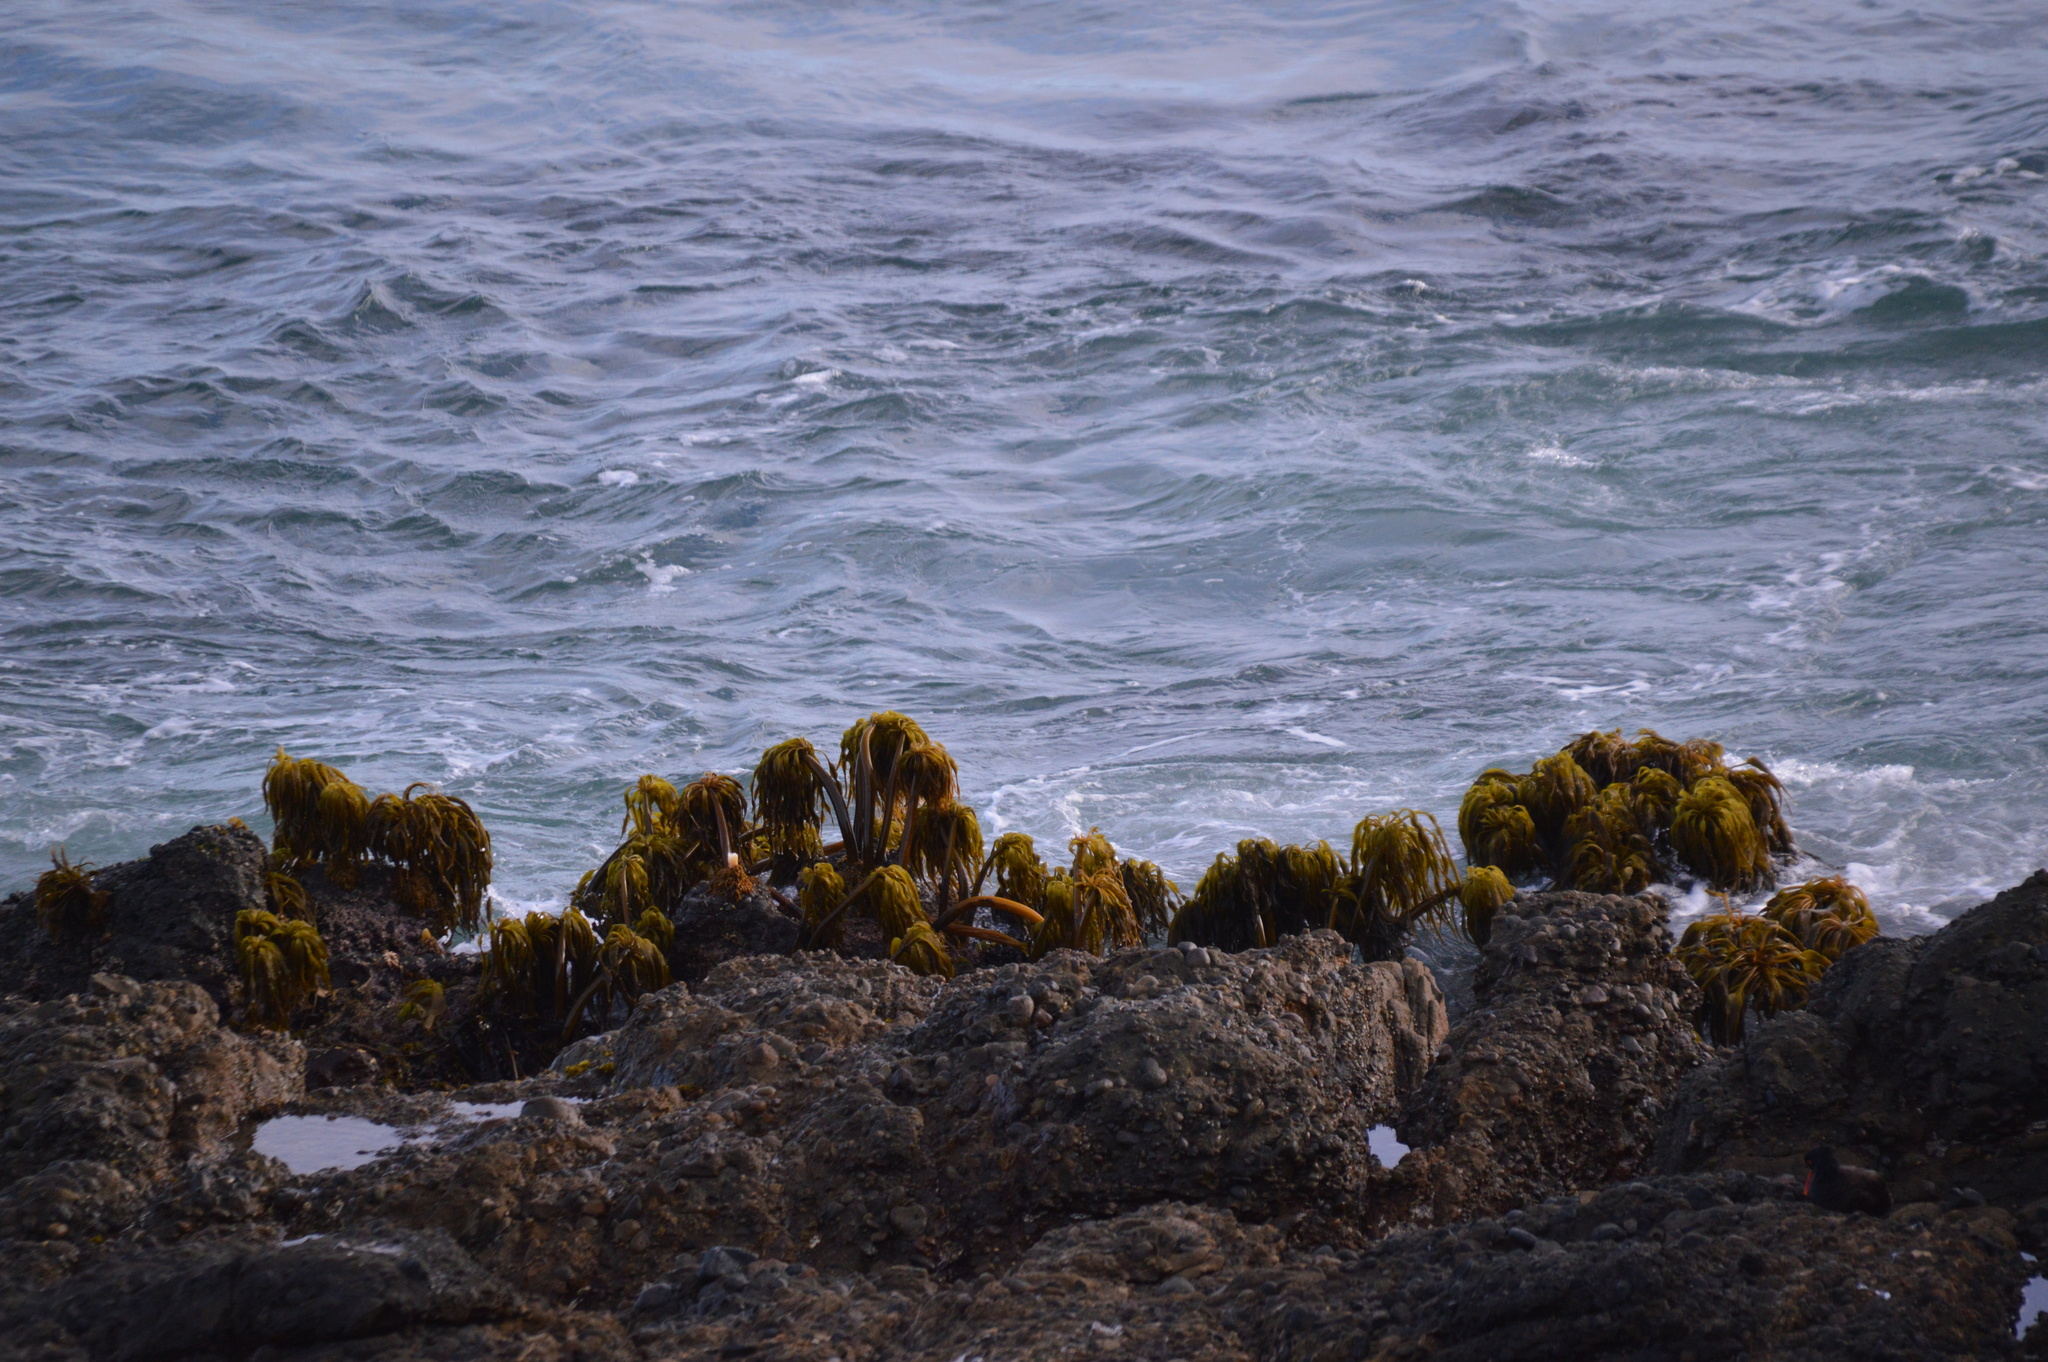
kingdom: Chromista
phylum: Ochrophyta
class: Phaeophyceae
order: Laminariales
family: Laminariaceae
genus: Postelsia
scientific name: Postelsia palmiformis
